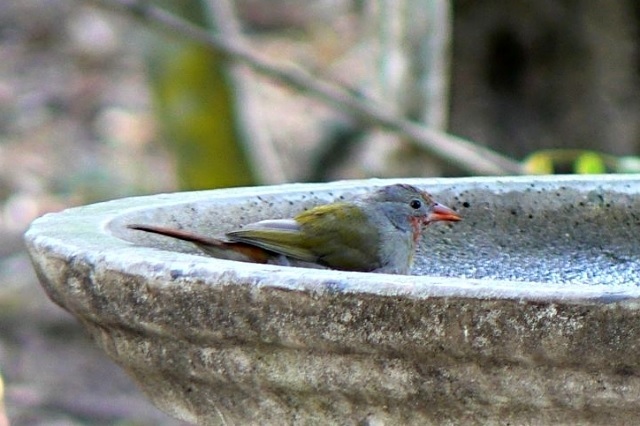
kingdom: Animalia
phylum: Chordata
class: Aves
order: Passeriformes
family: Estrildidae
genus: Pytilia
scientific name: Pytilia melba
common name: Green-winged pytilia
